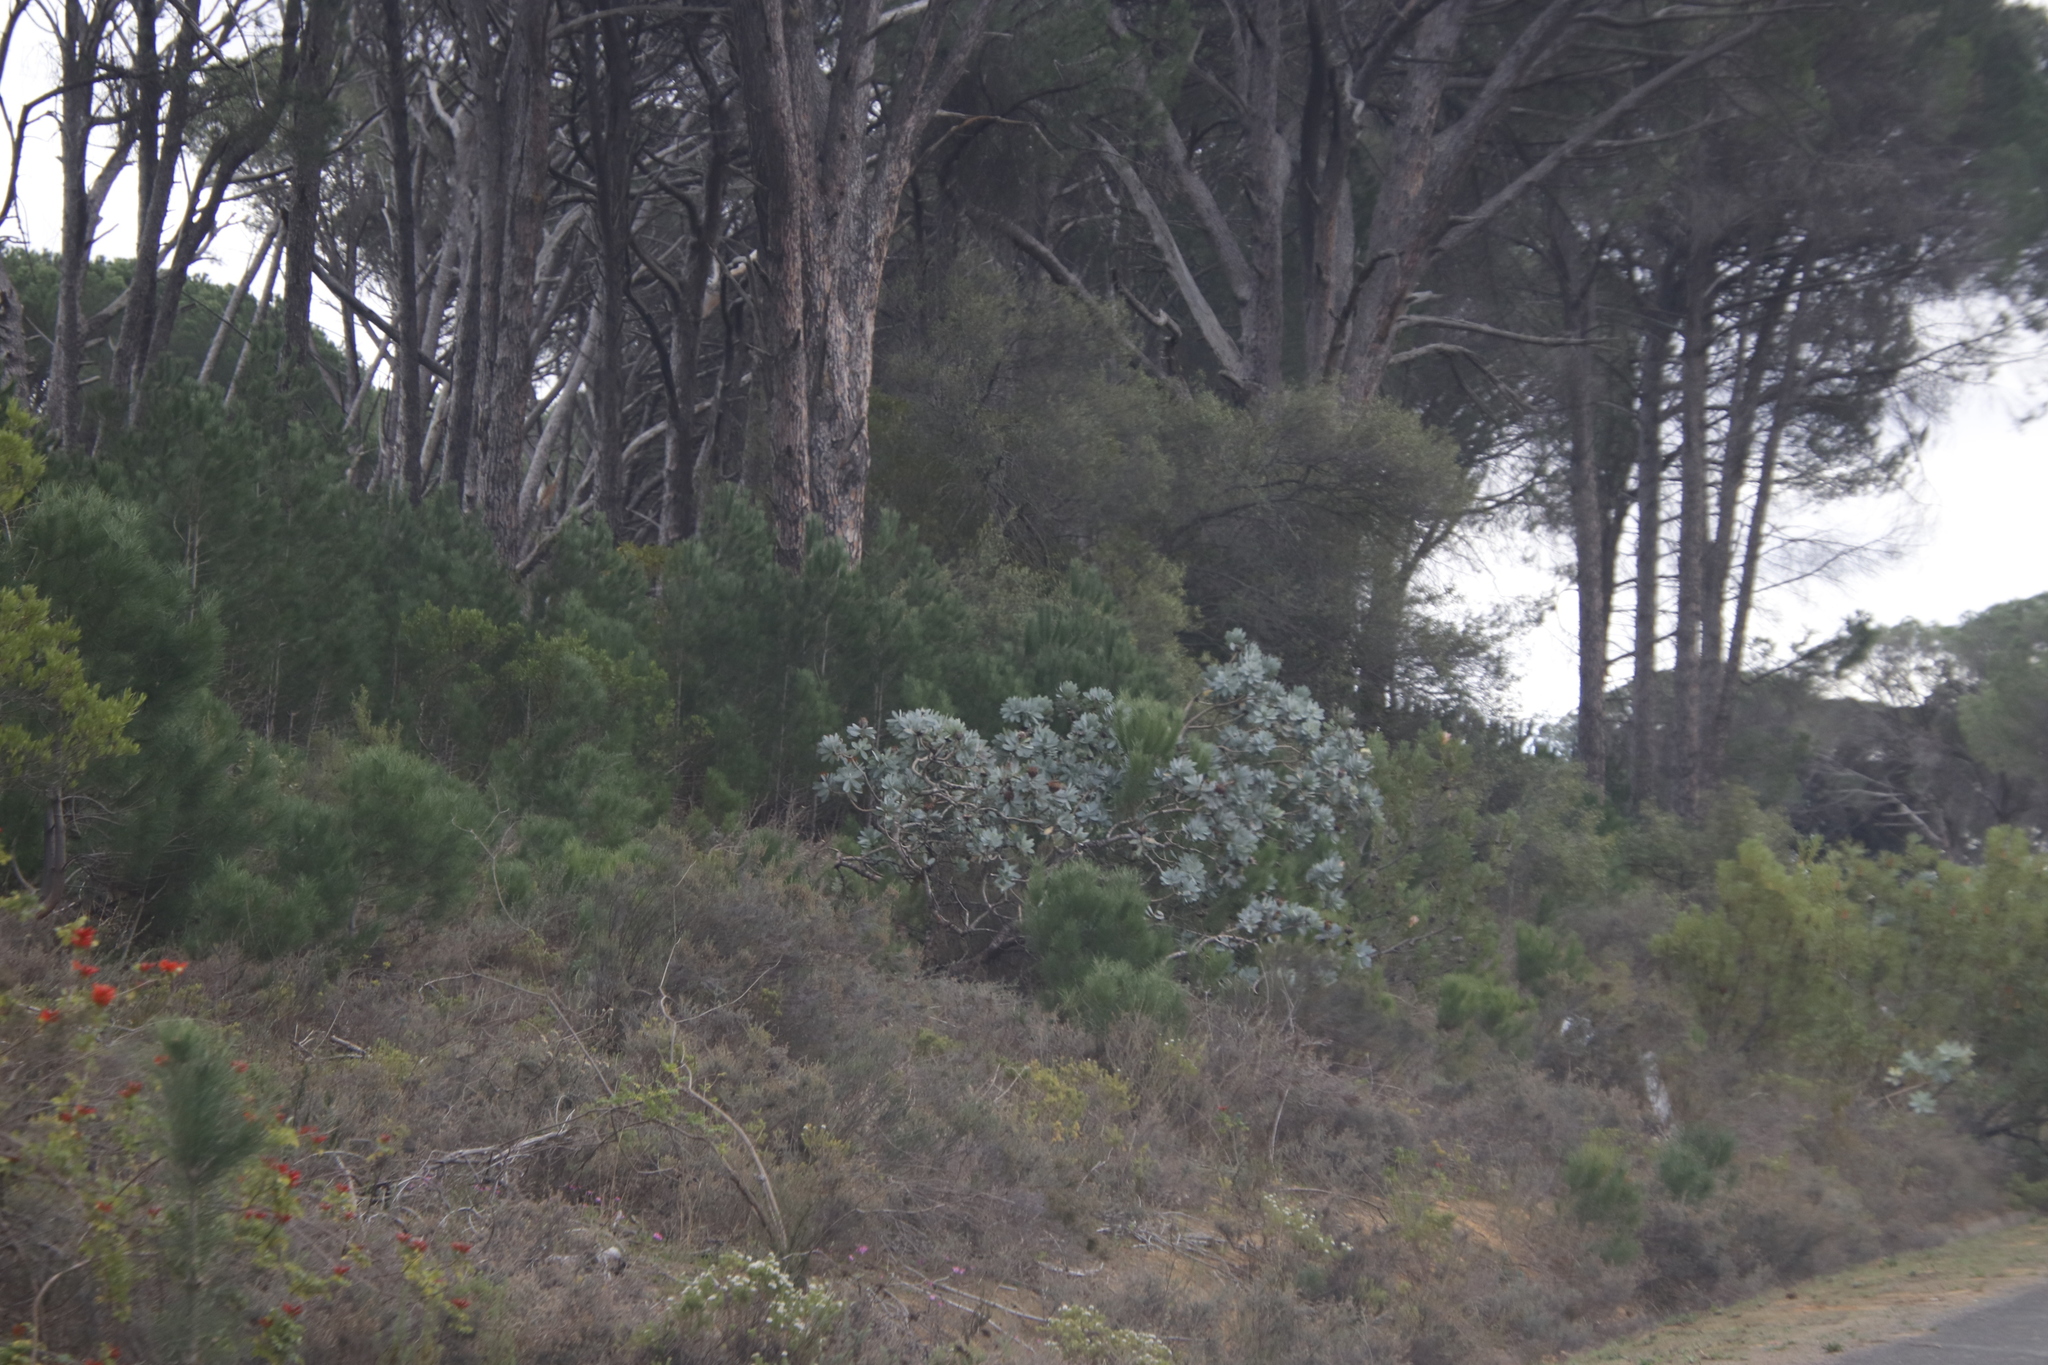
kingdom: Plantae
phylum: Tracheophyta
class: Magnoliopsida
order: Proteales
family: Proteaceae
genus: Protea
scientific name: Protea nitida
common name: Tree protea
